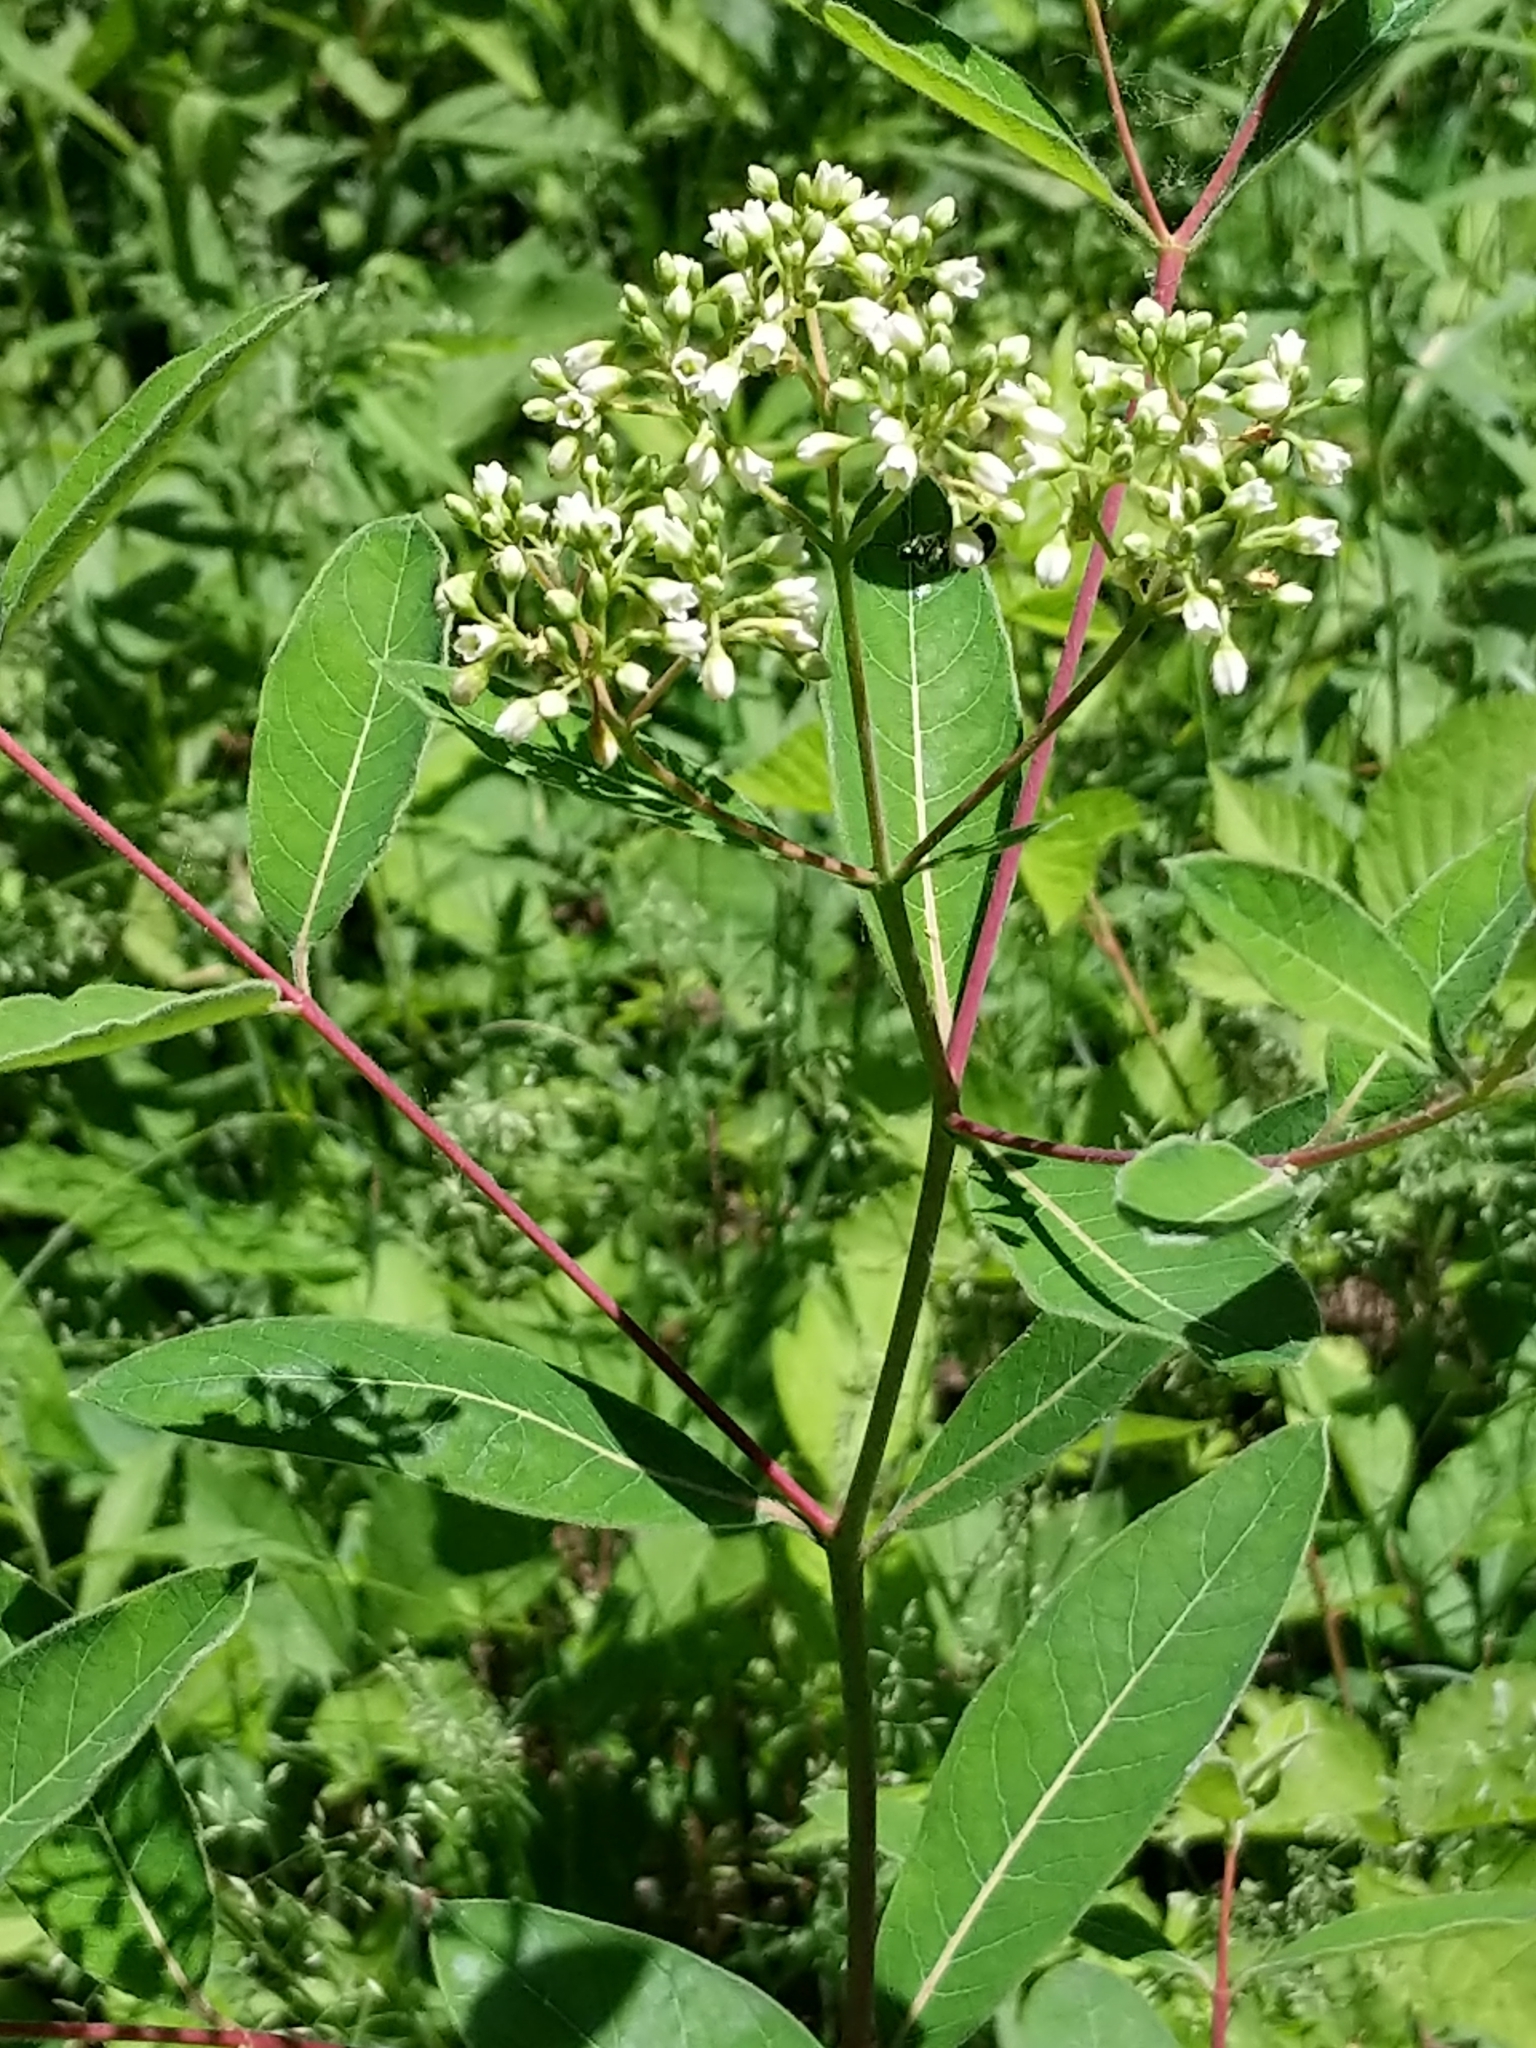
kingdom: Plantae
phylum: Tracheophyta
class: Magnoliopsida
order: Gentianales
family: Apocynaceae
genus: Apocynum
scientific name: Apocynum cannabinum
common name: Hemp dogbane
